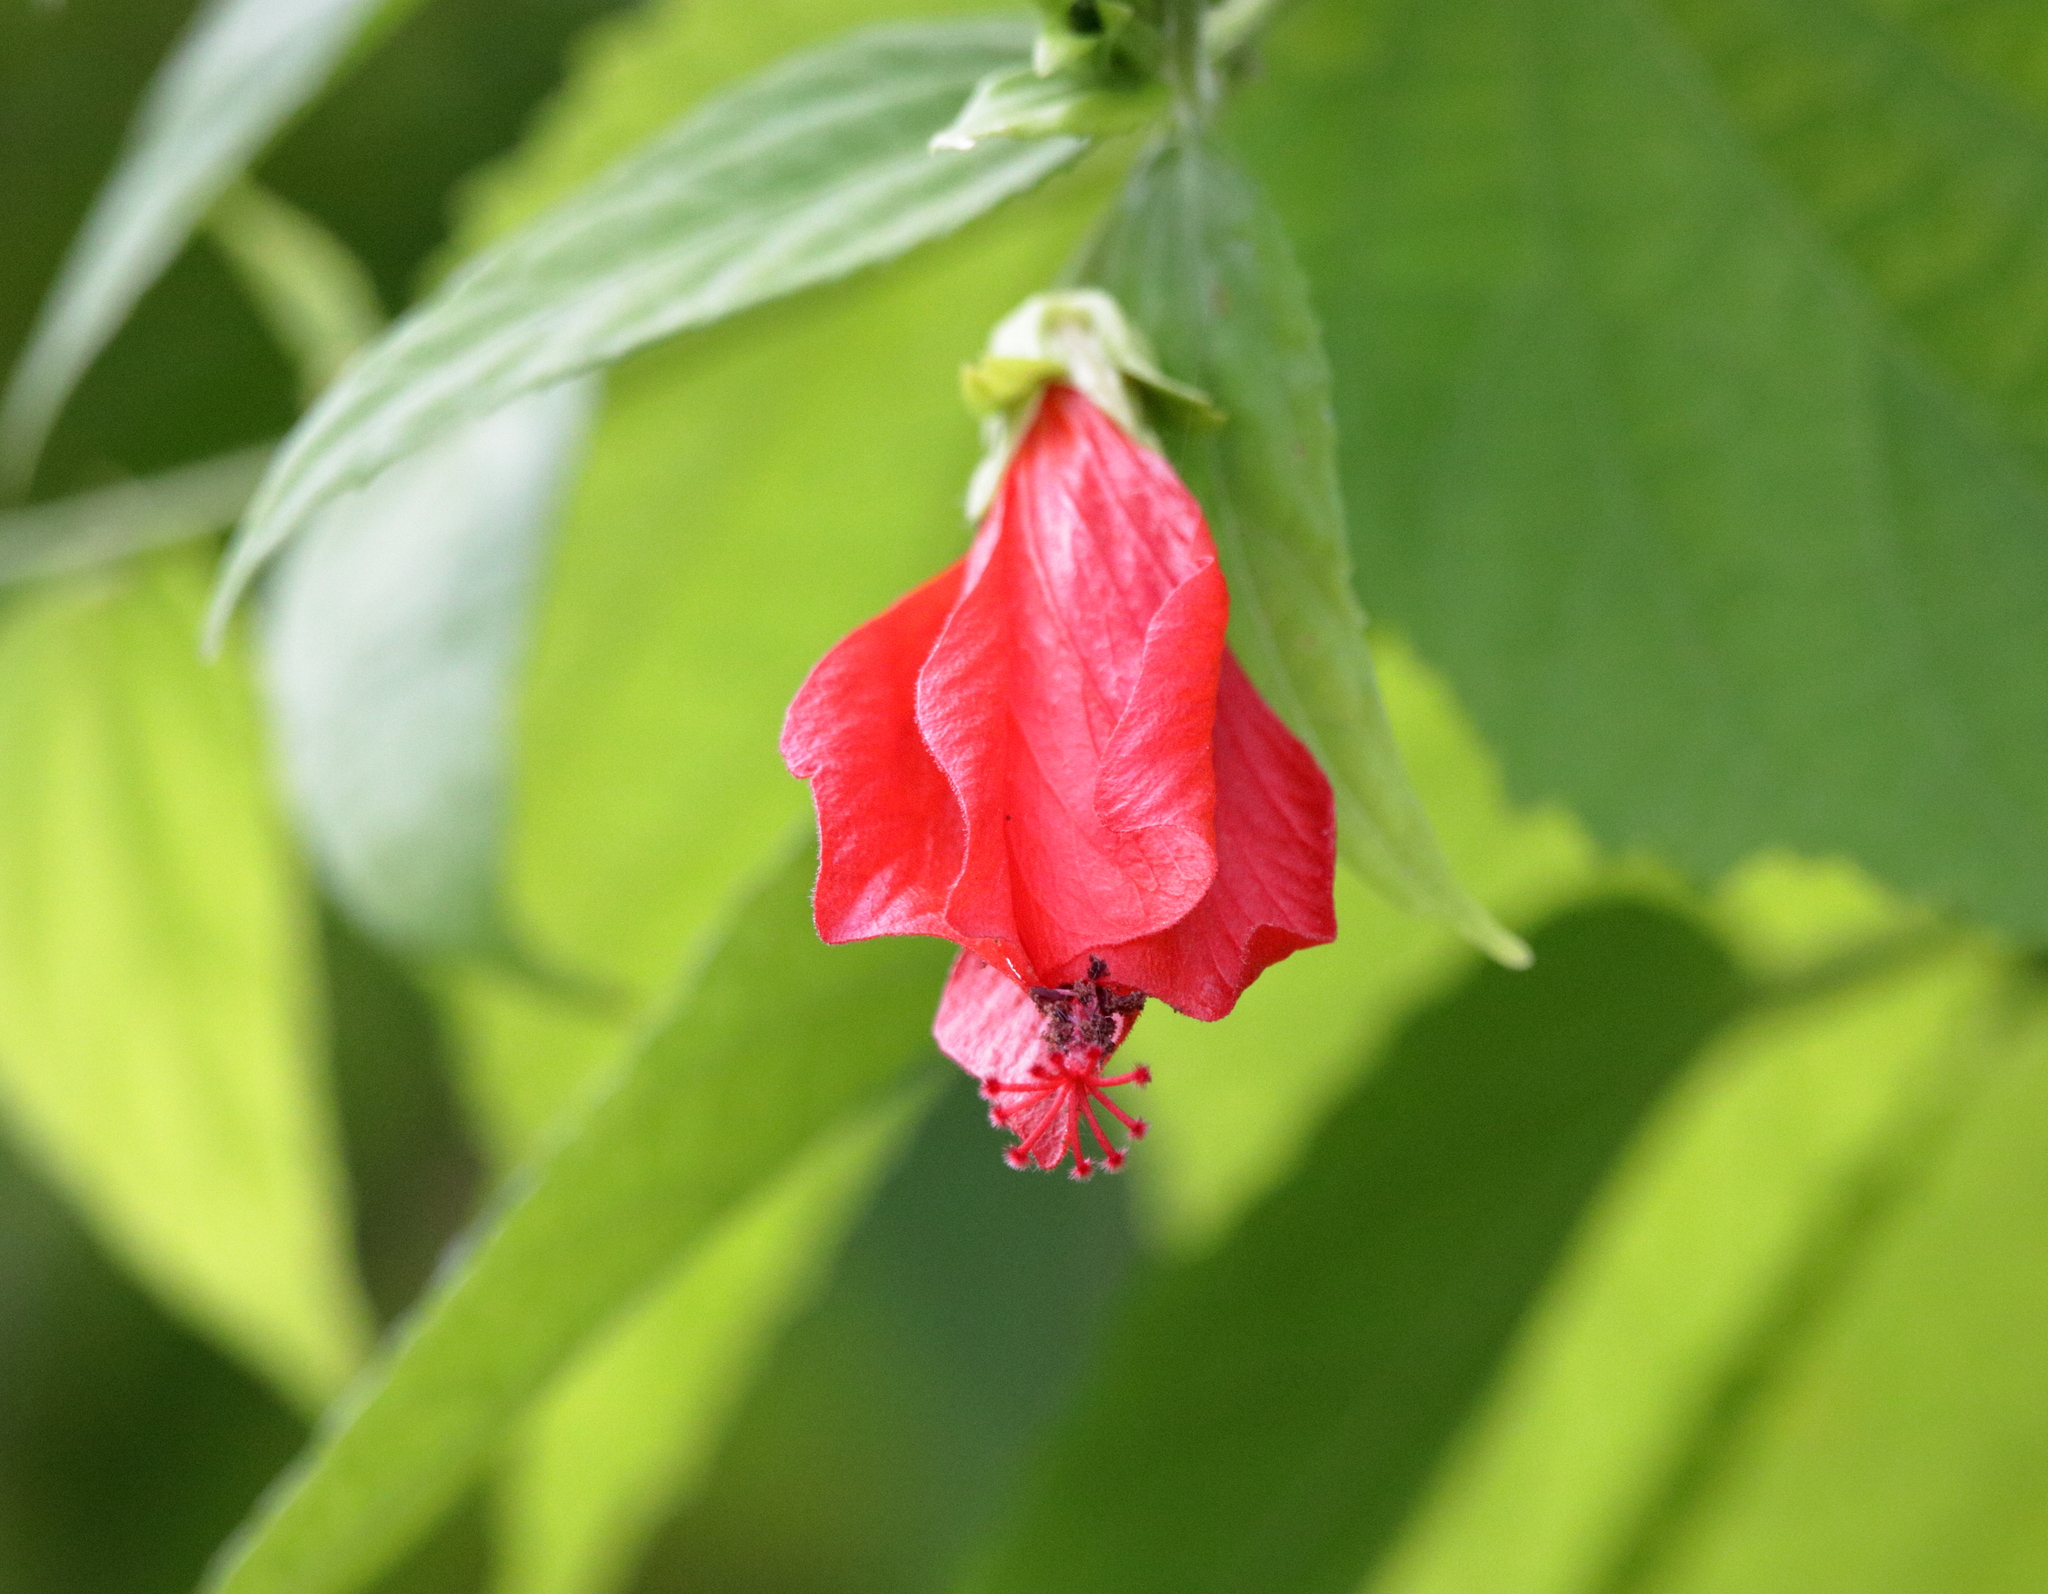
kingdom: Plantae
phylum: Tracheophyta
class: Magnoliopsida
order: Malvales
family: Malvaceae
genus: Malvaviscus
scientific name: Malvaviscus penduliflorus
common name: Mazapan
